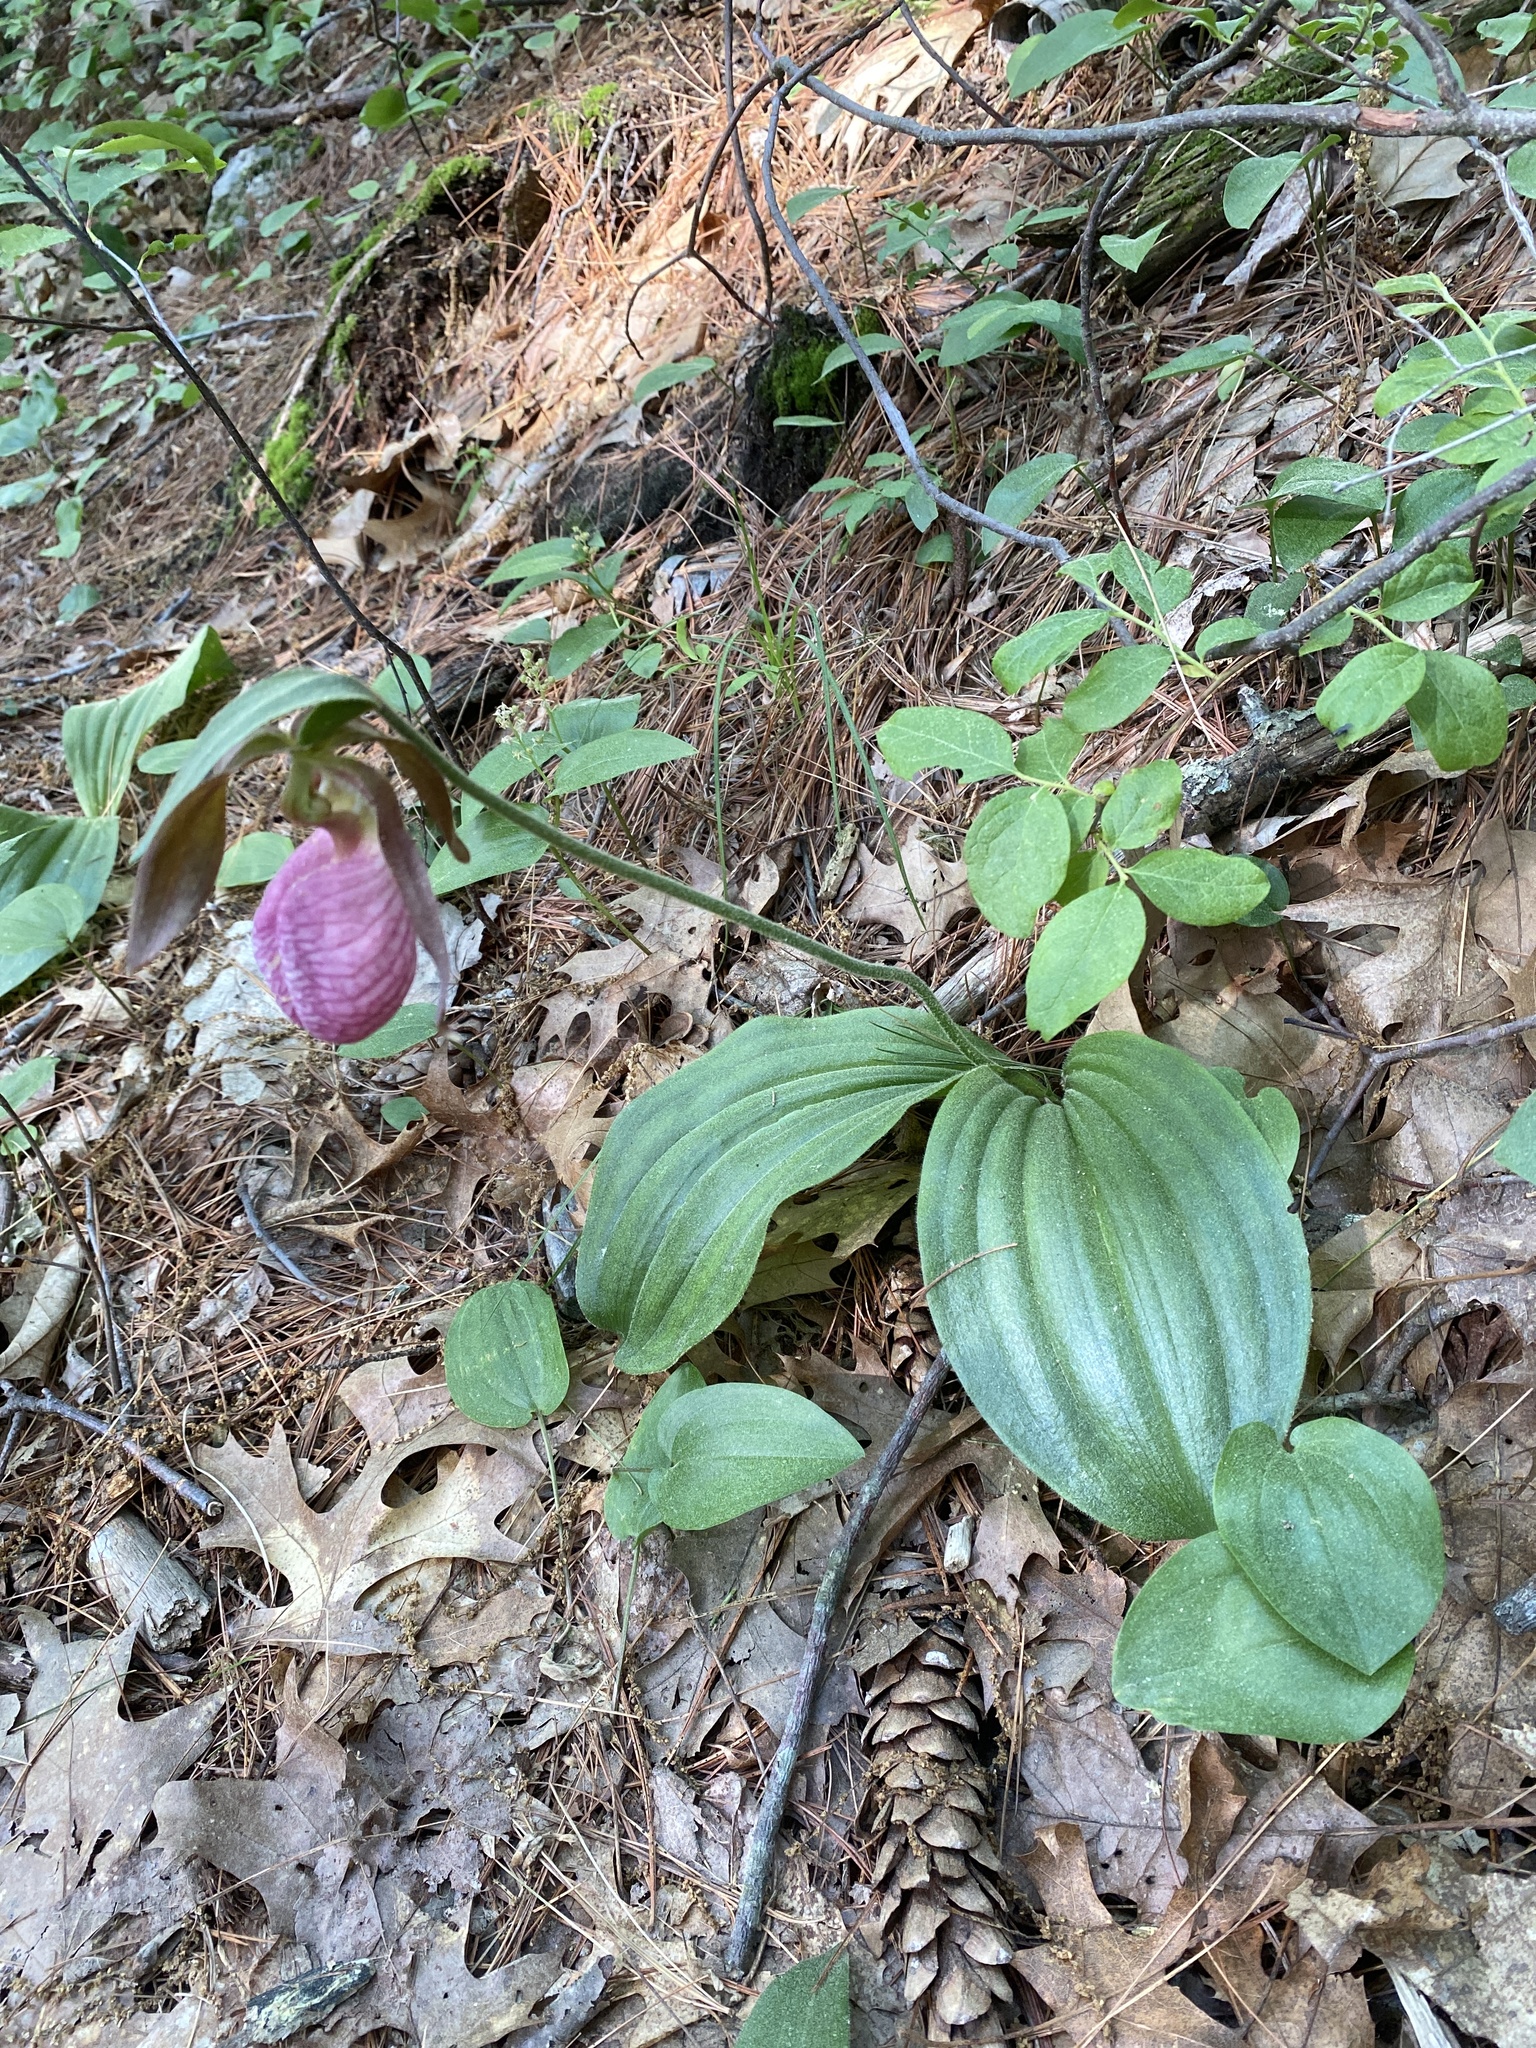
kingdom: Plantae
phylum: Tracheophyta
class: Liliopsida
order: Asparagales
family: Orchidaceae
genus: Cypripedium
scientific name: Cypripedium acaule
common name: Pink lady's-slipper
